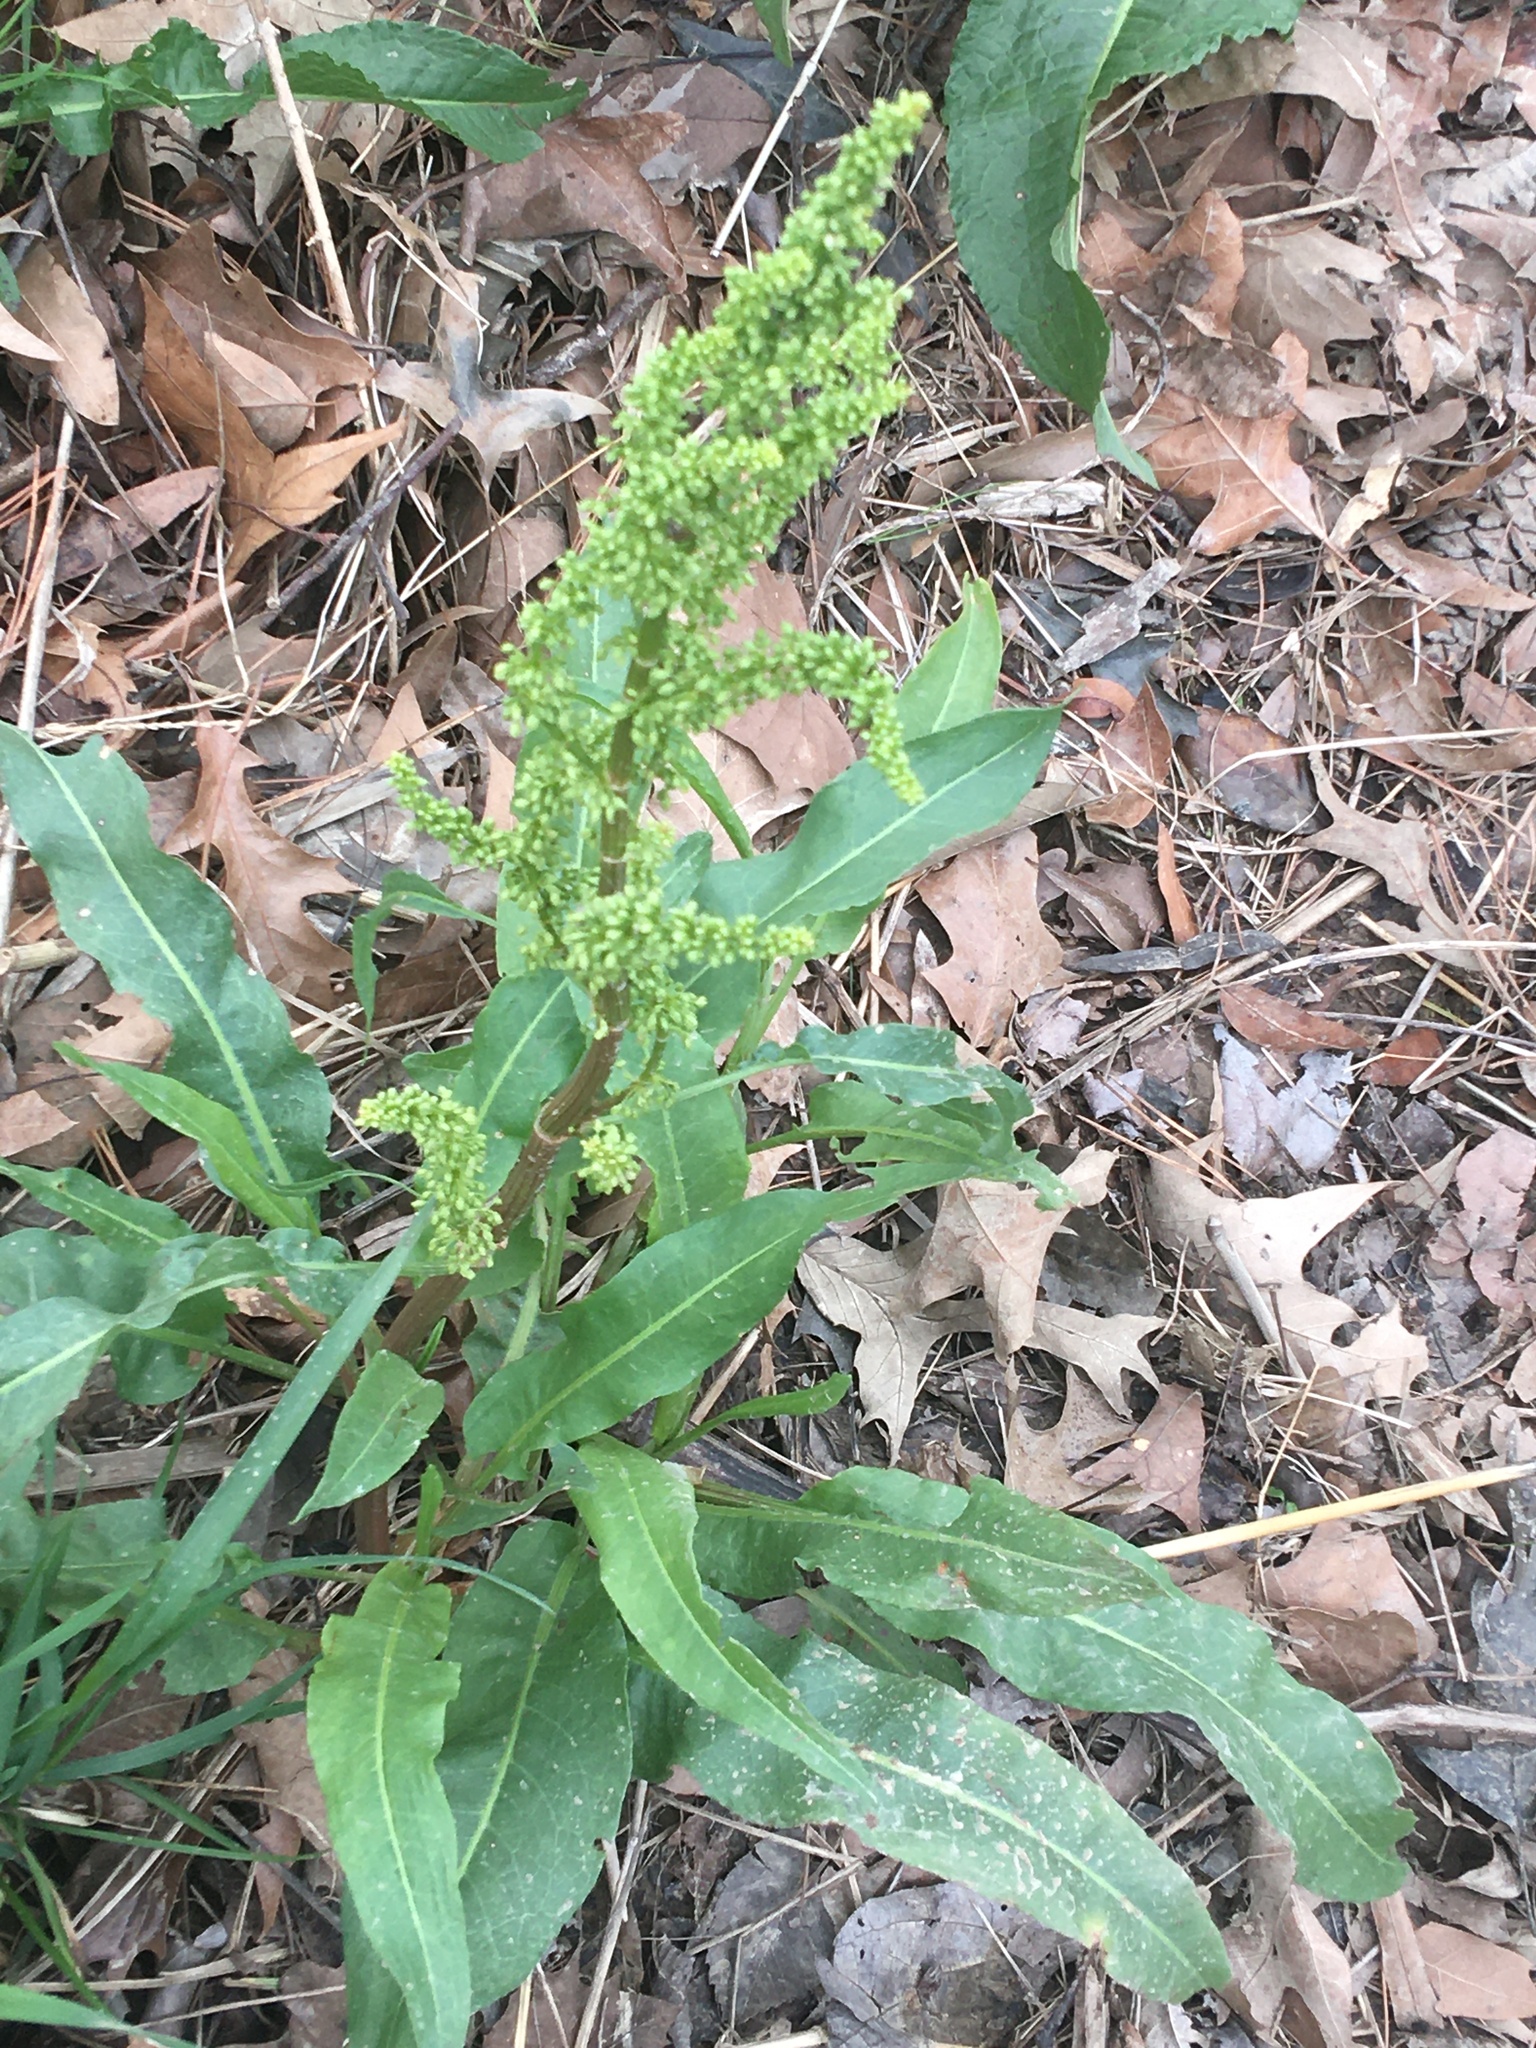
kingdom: Plantae
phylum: Tracheophyta
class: Magnoliopsida
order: Caryophyllales
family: Polygonaceae
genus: Rumex
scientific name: Rumex crispus
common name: Curled dock
